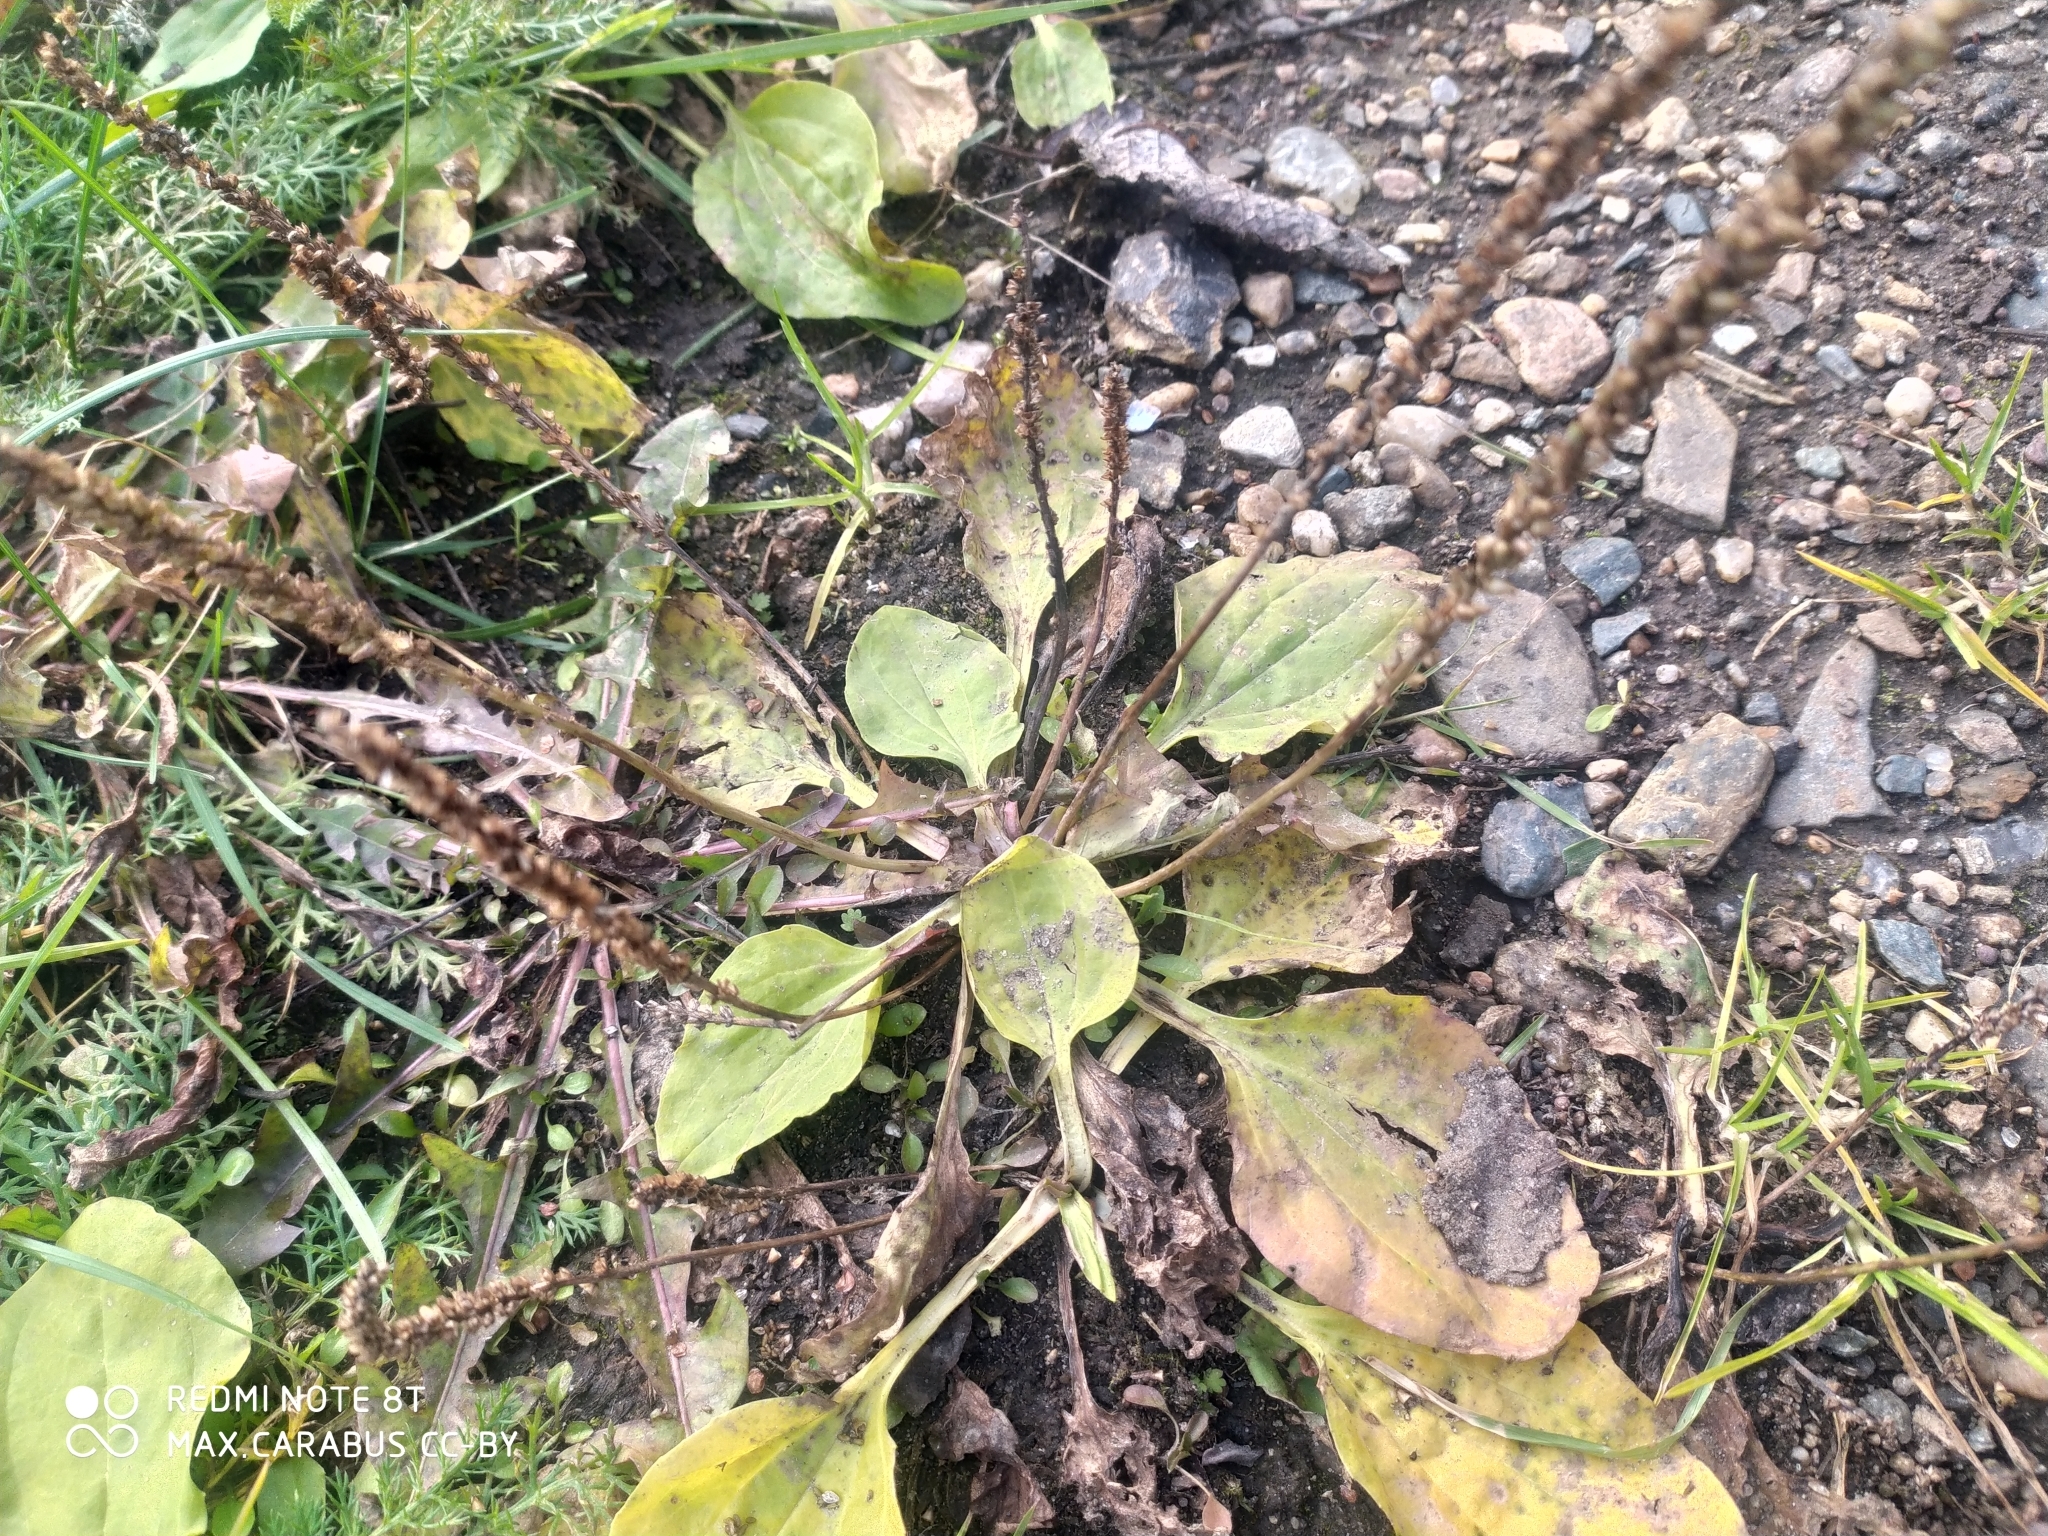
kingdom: Plantae
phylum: Tracheophyta
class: Magnoliopsida
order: Lamiales
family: Plantaginaceae
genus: Plantago
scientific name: Plantago major
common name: Common plantain
